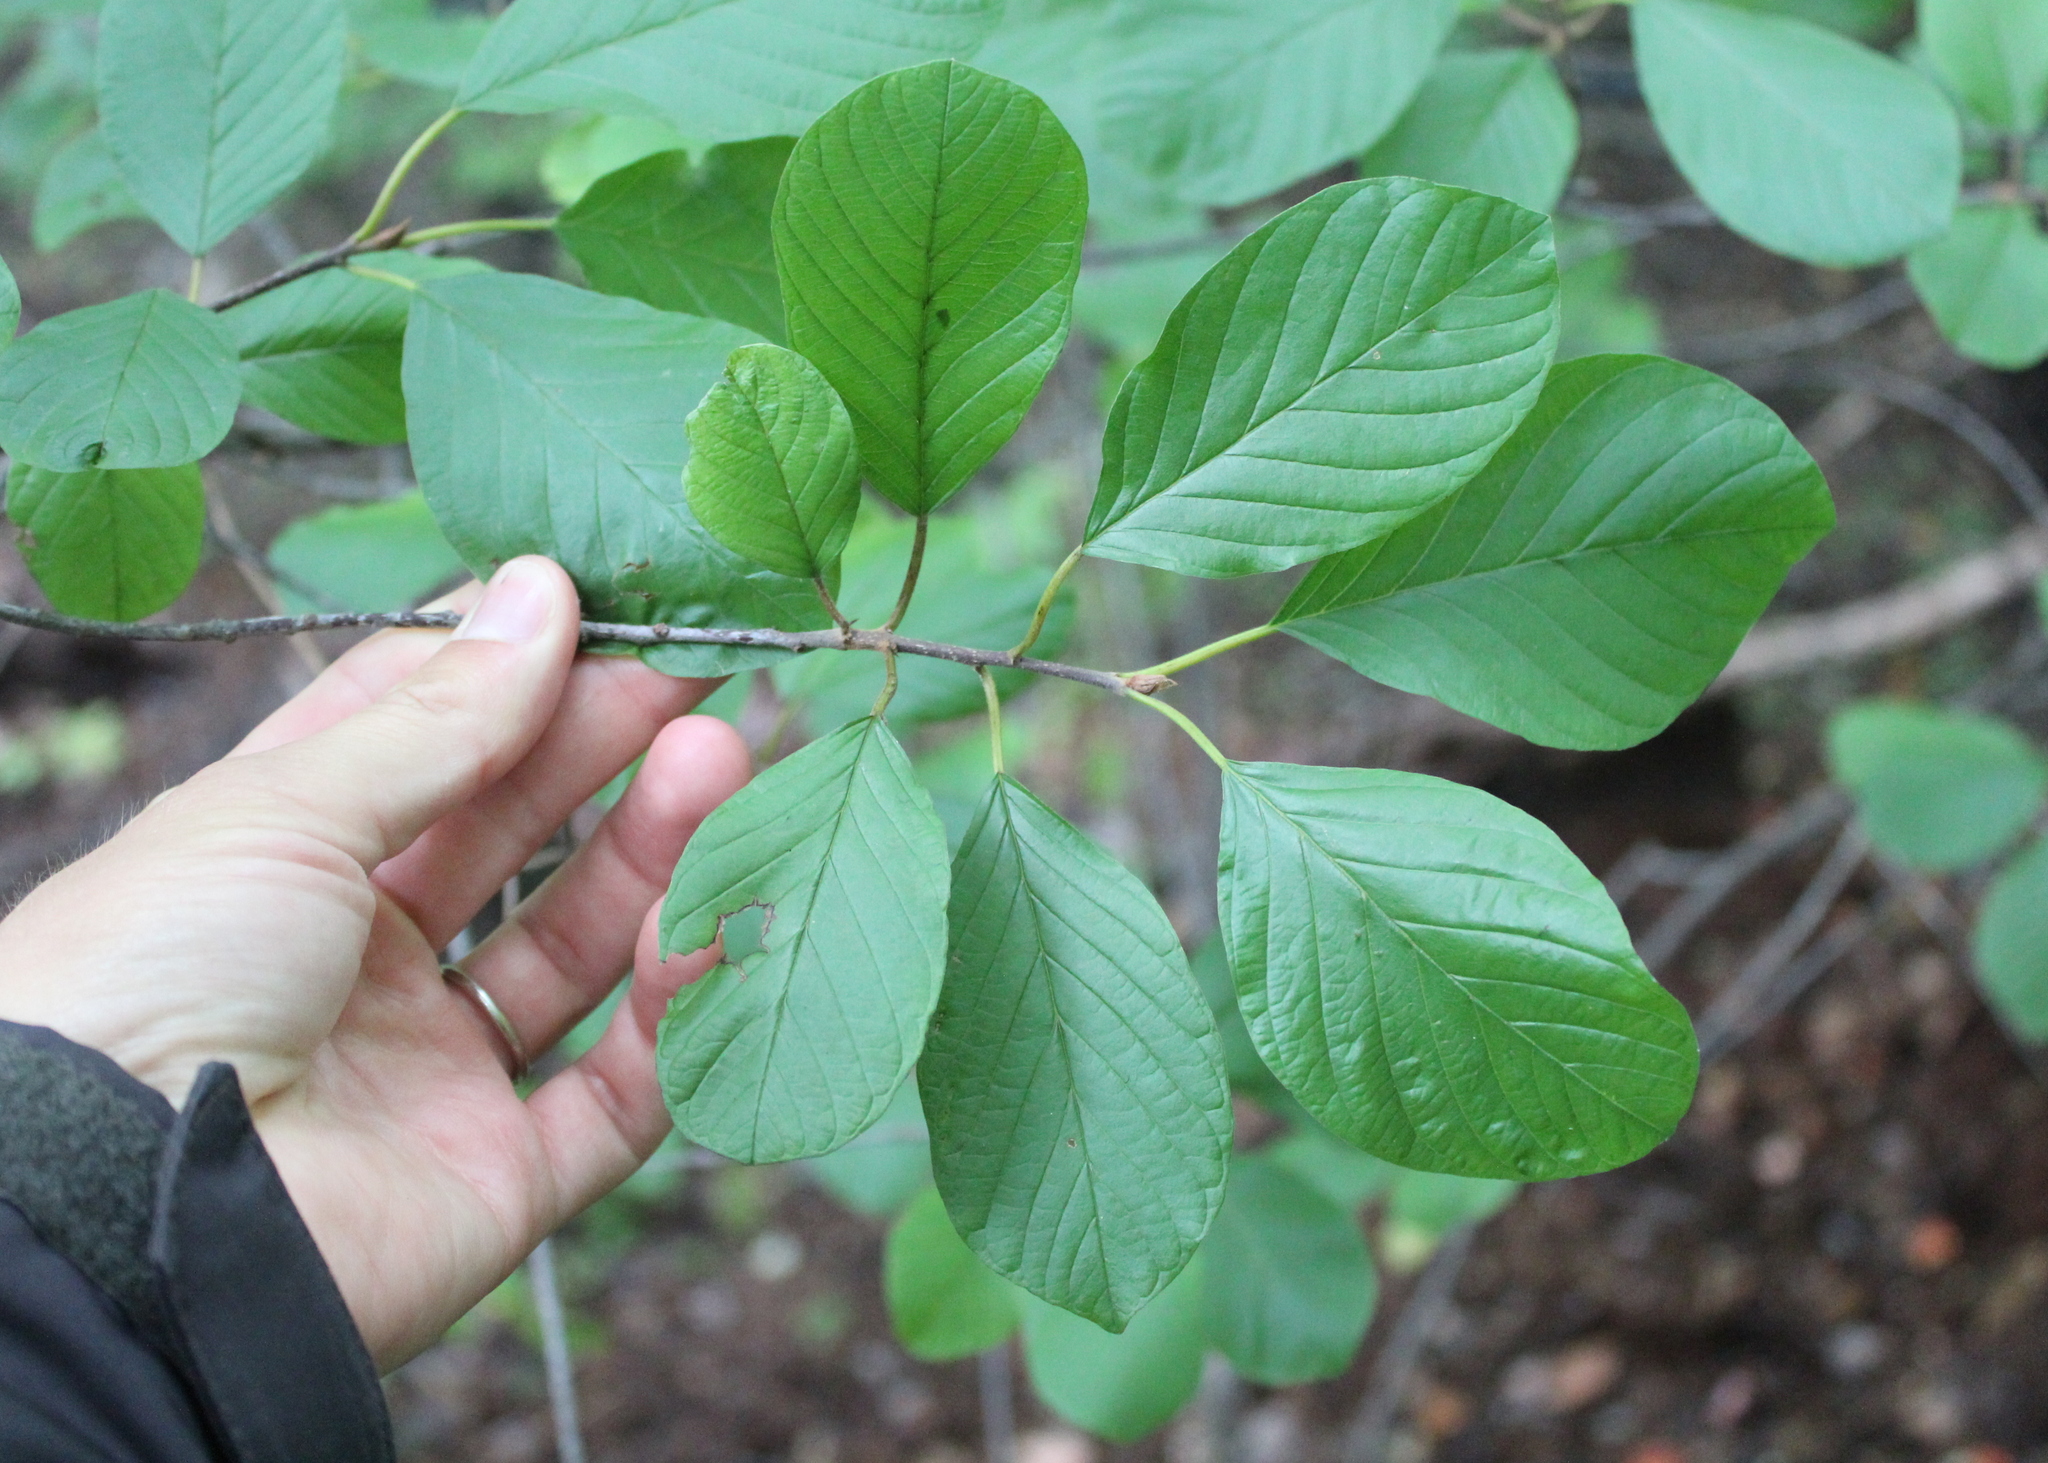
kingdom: Plantae
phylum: Tracheophyta
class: Magnoliopsida
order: Rosales
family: Rhamnaceae
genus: Frangula
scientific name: Frangula alnus
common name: Alder buckthorn
